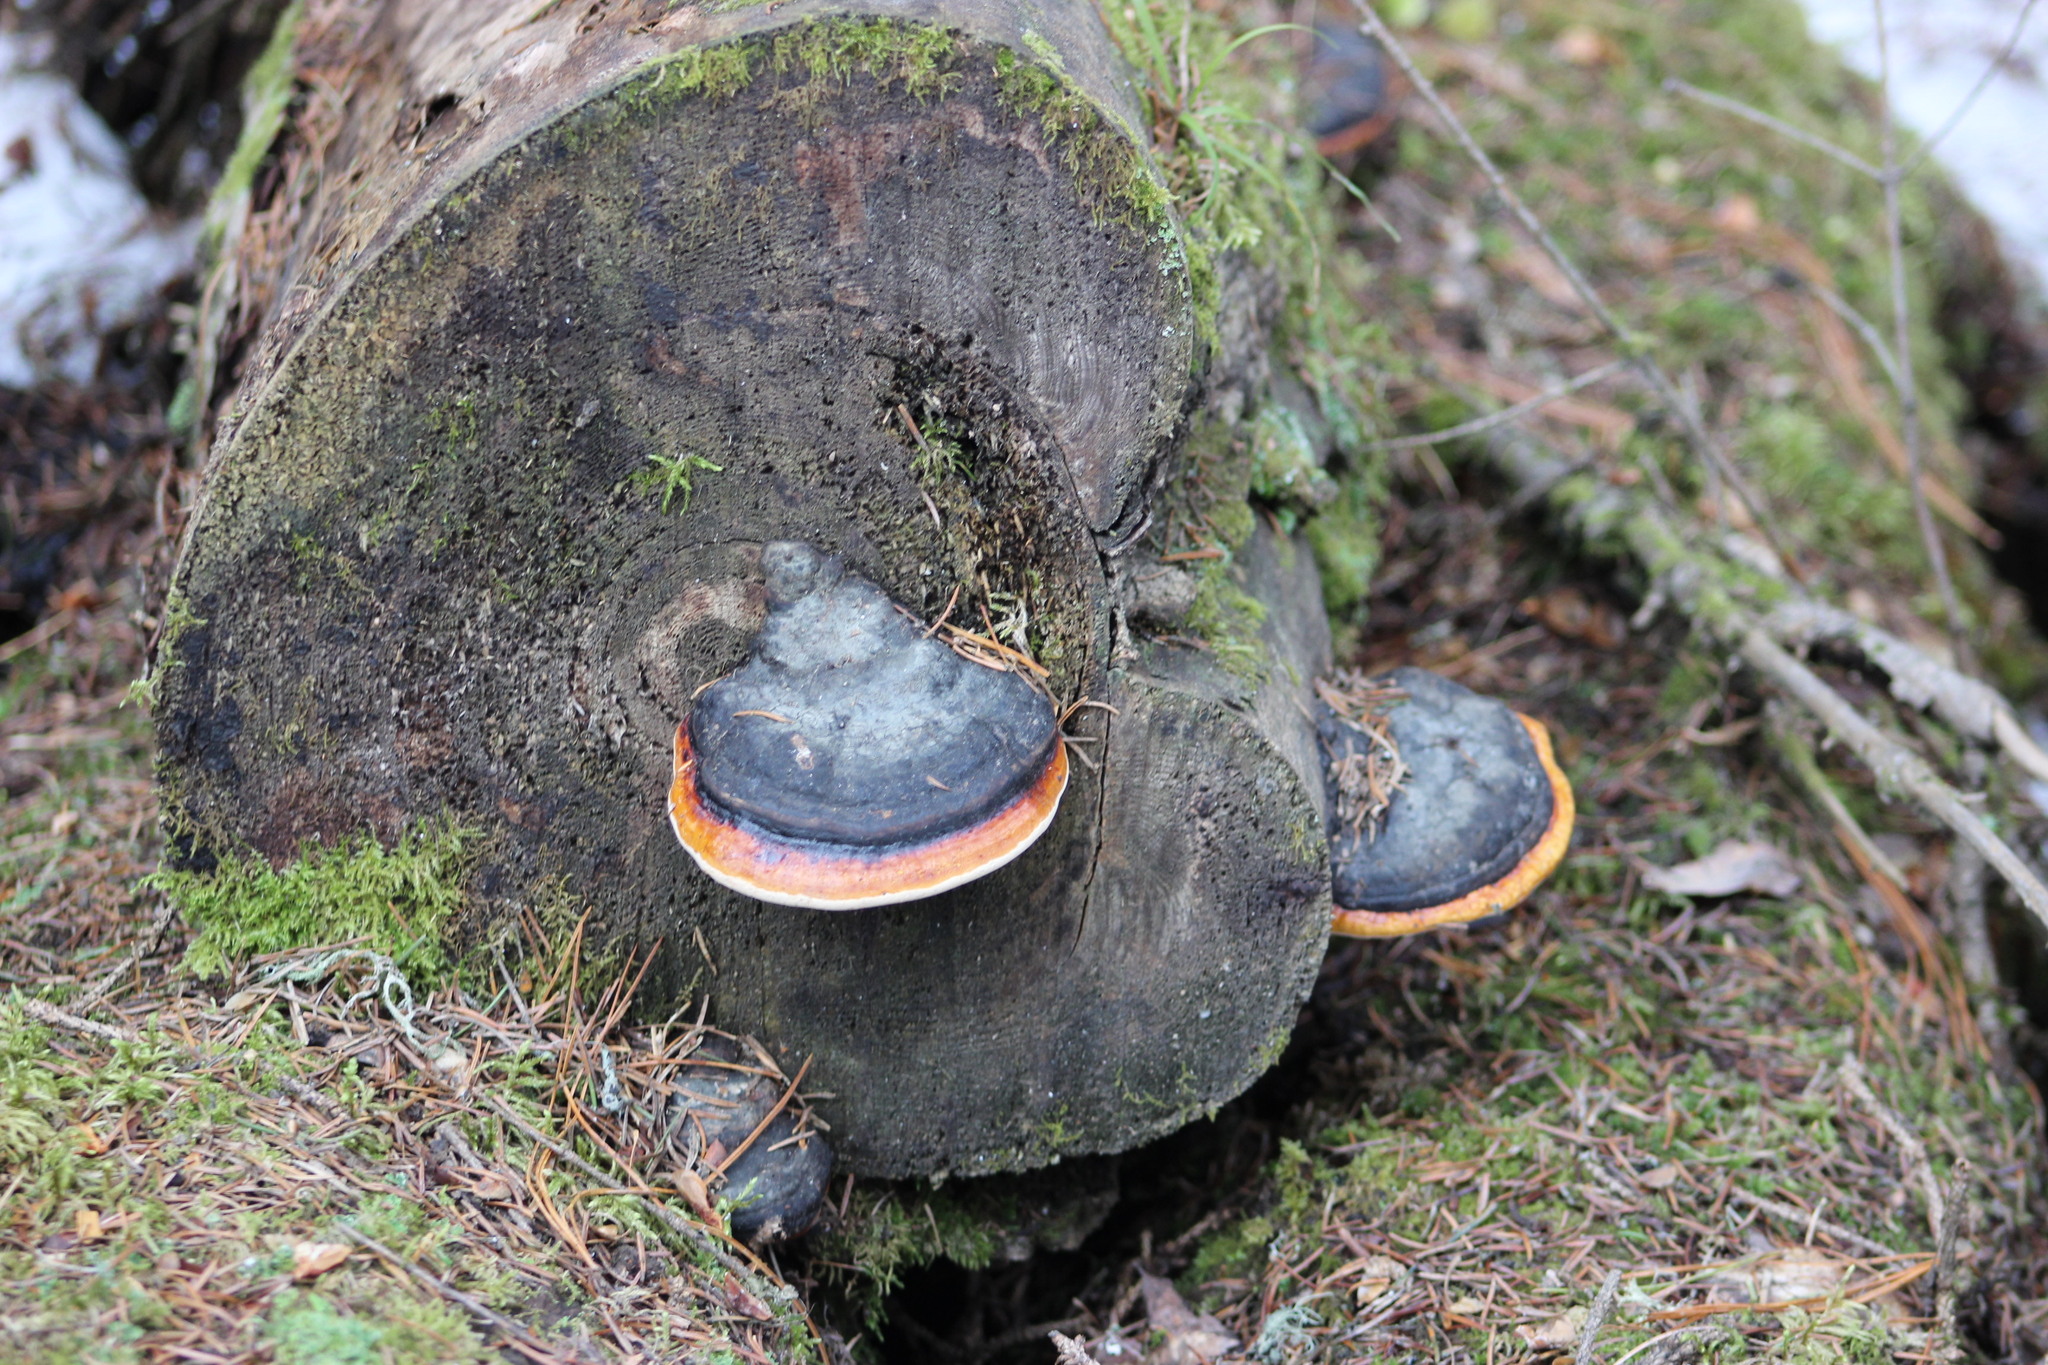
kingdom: Fungi
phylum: Basidiomycota
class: Agaricomycetes
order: Polyporales
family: Fomitopsidaceae
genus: Fomitopsis
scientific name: Fomitopsis pinicola
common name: Red-belted bracket
